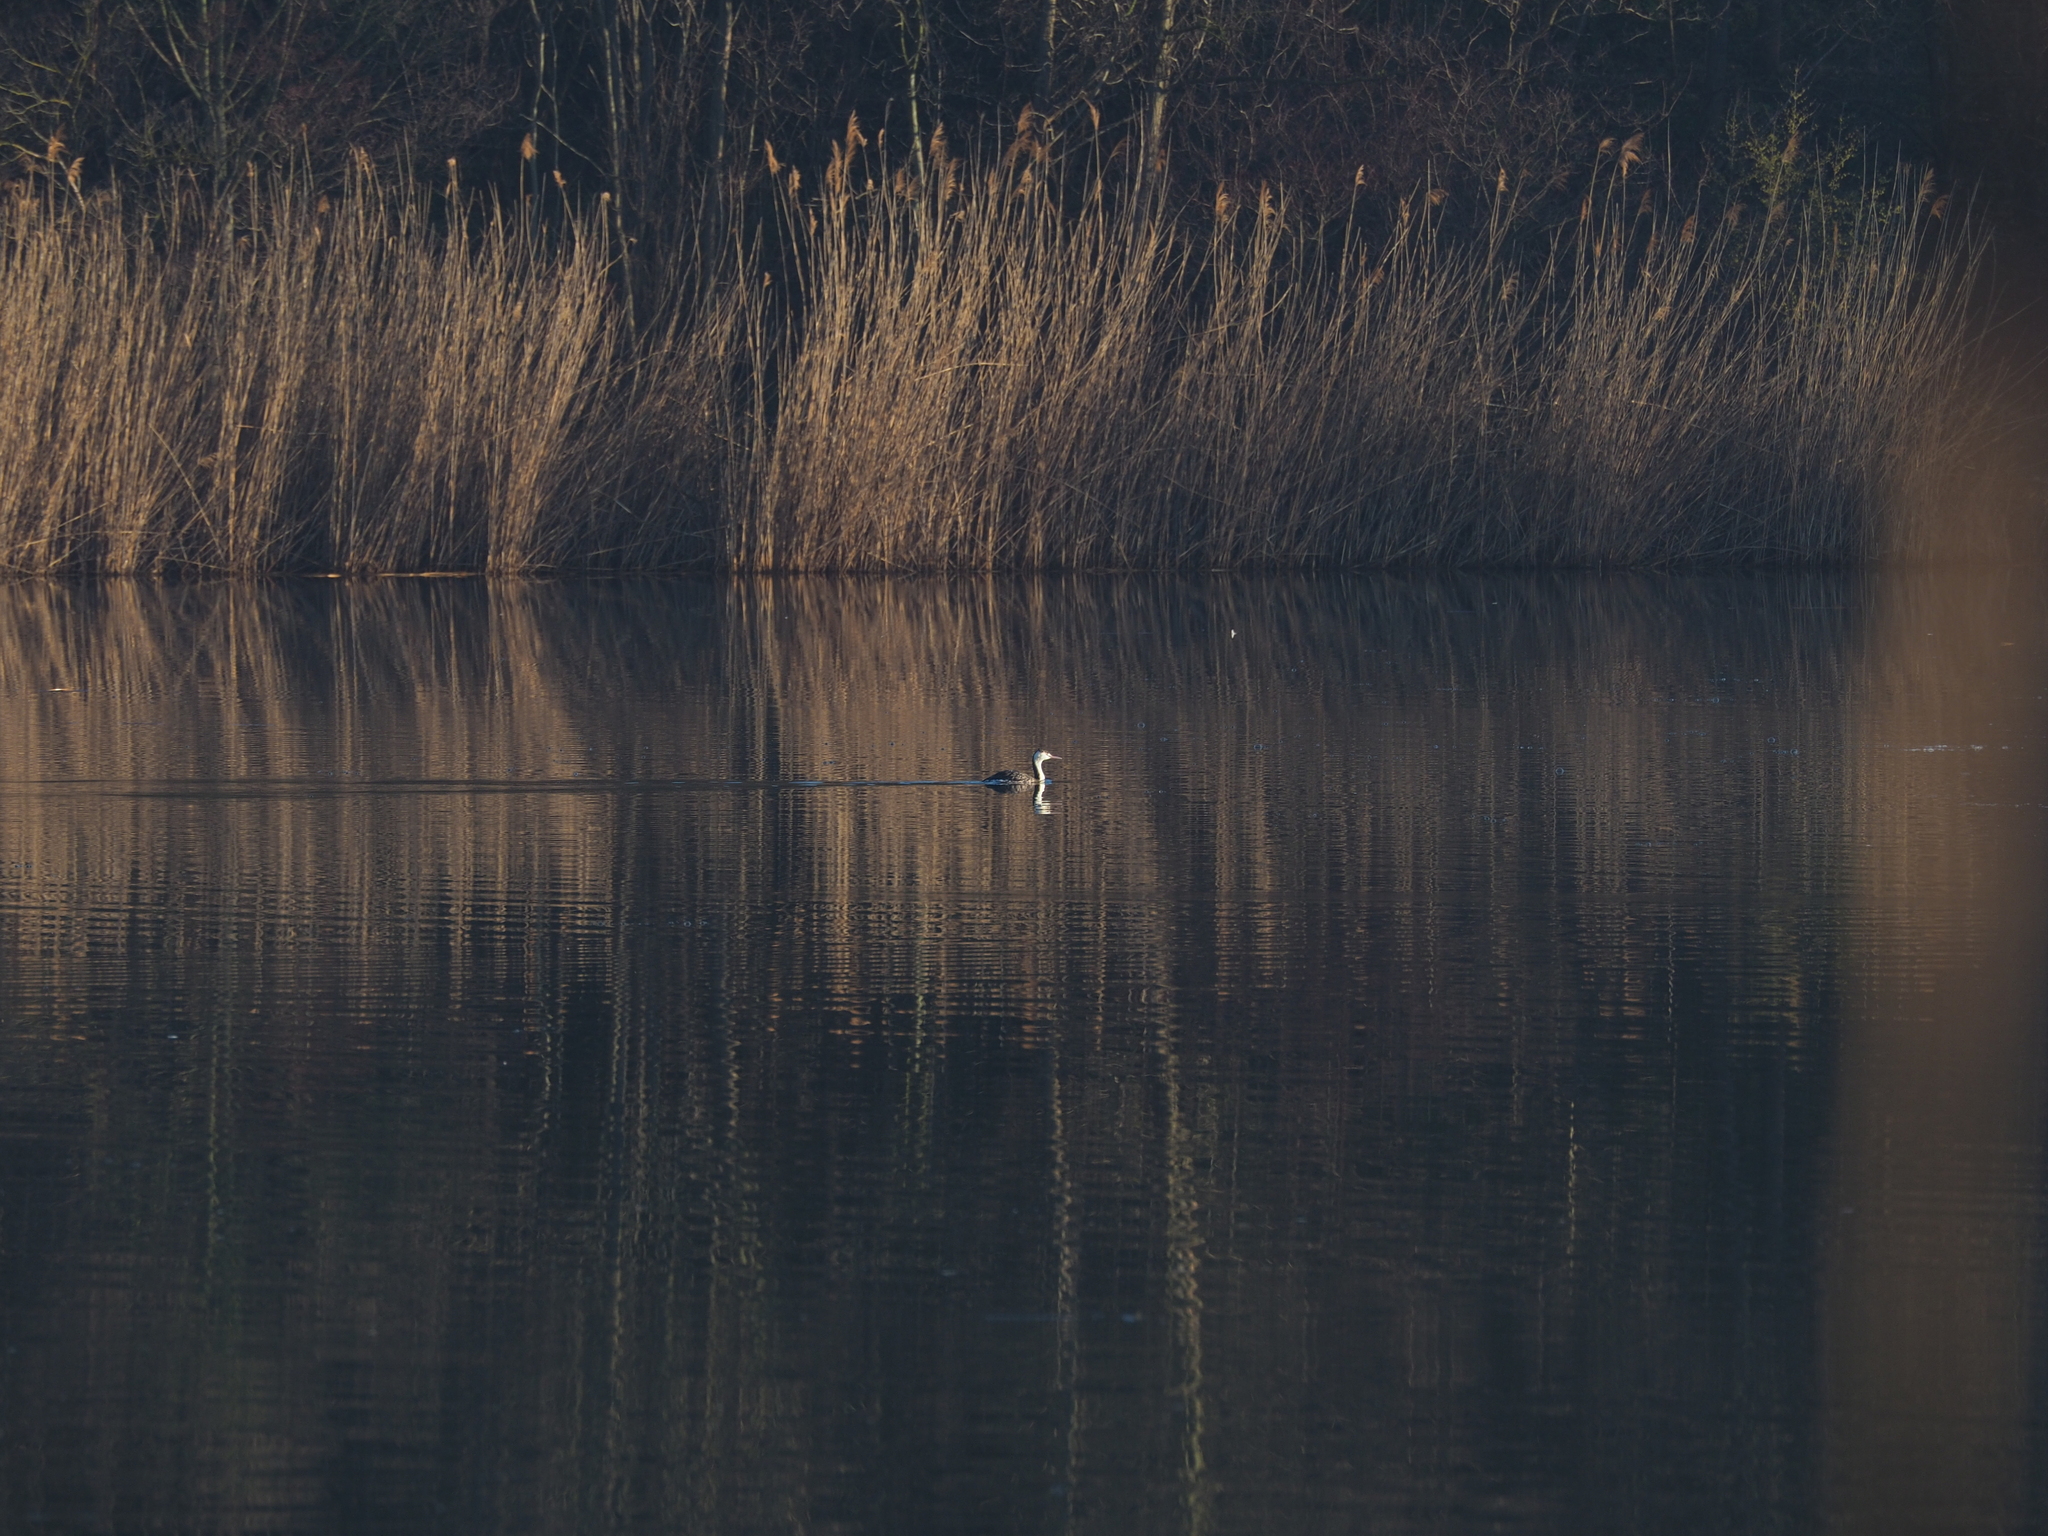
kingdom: Animalia
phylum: Chordata
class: Aves
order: Podicipediformes
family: Podicipedidae
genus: Podiceps
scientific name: Podiceps cristatus
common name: Great crested grebe
